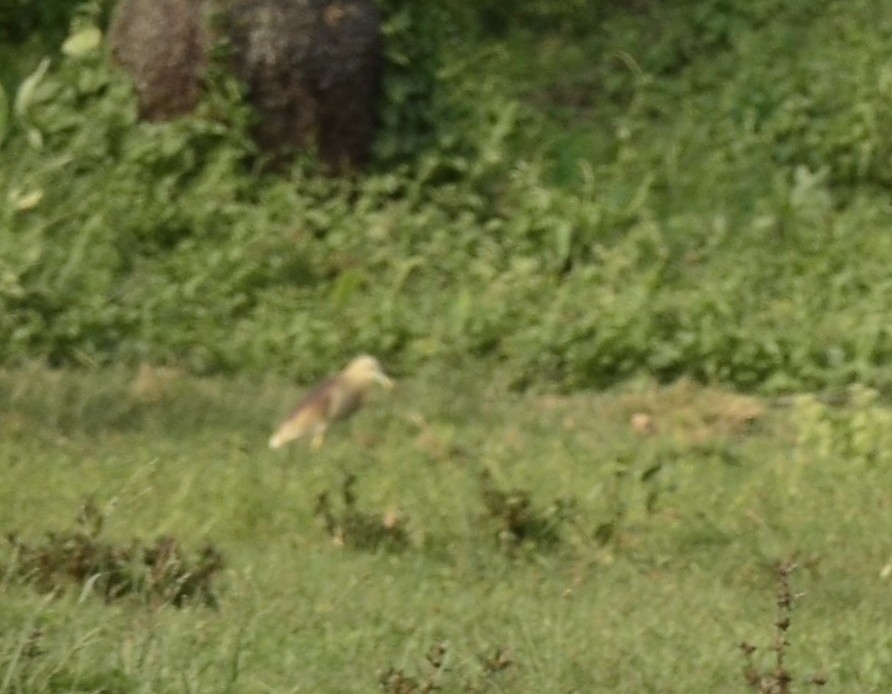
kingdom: Animalia
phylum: Chordata
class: Aves
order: Pelecaniformes
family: Ardeidae
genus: Ardeola
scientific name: Ardeola grayii
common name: Indian pond heron
